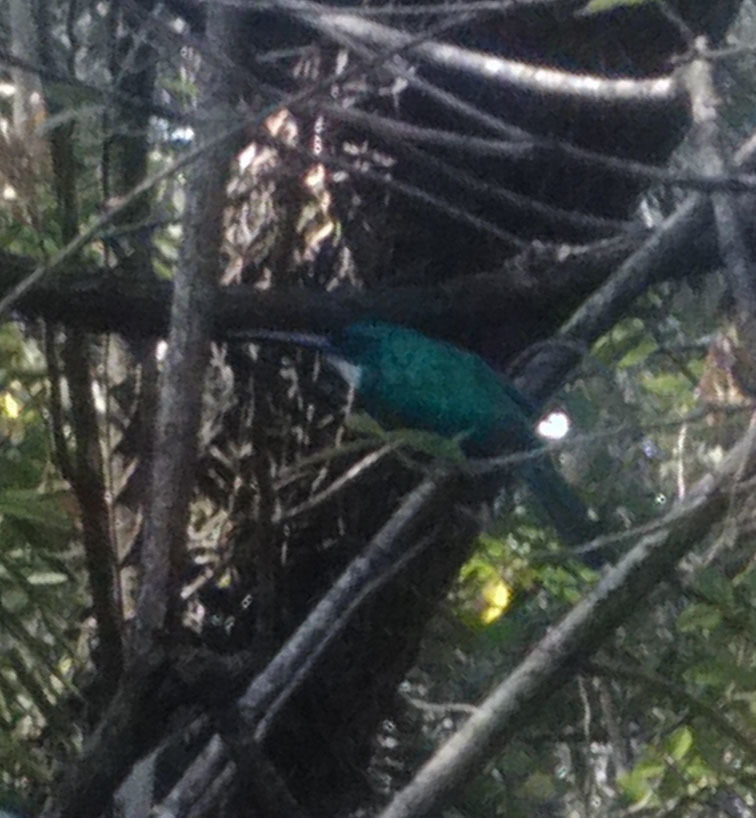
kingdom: Animalia
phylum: Chordata
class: Aves
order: Piciformes
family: Galbulidae
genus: Galbula
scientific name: Galbula ruficauda
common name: Rufous-tailed jacamar
